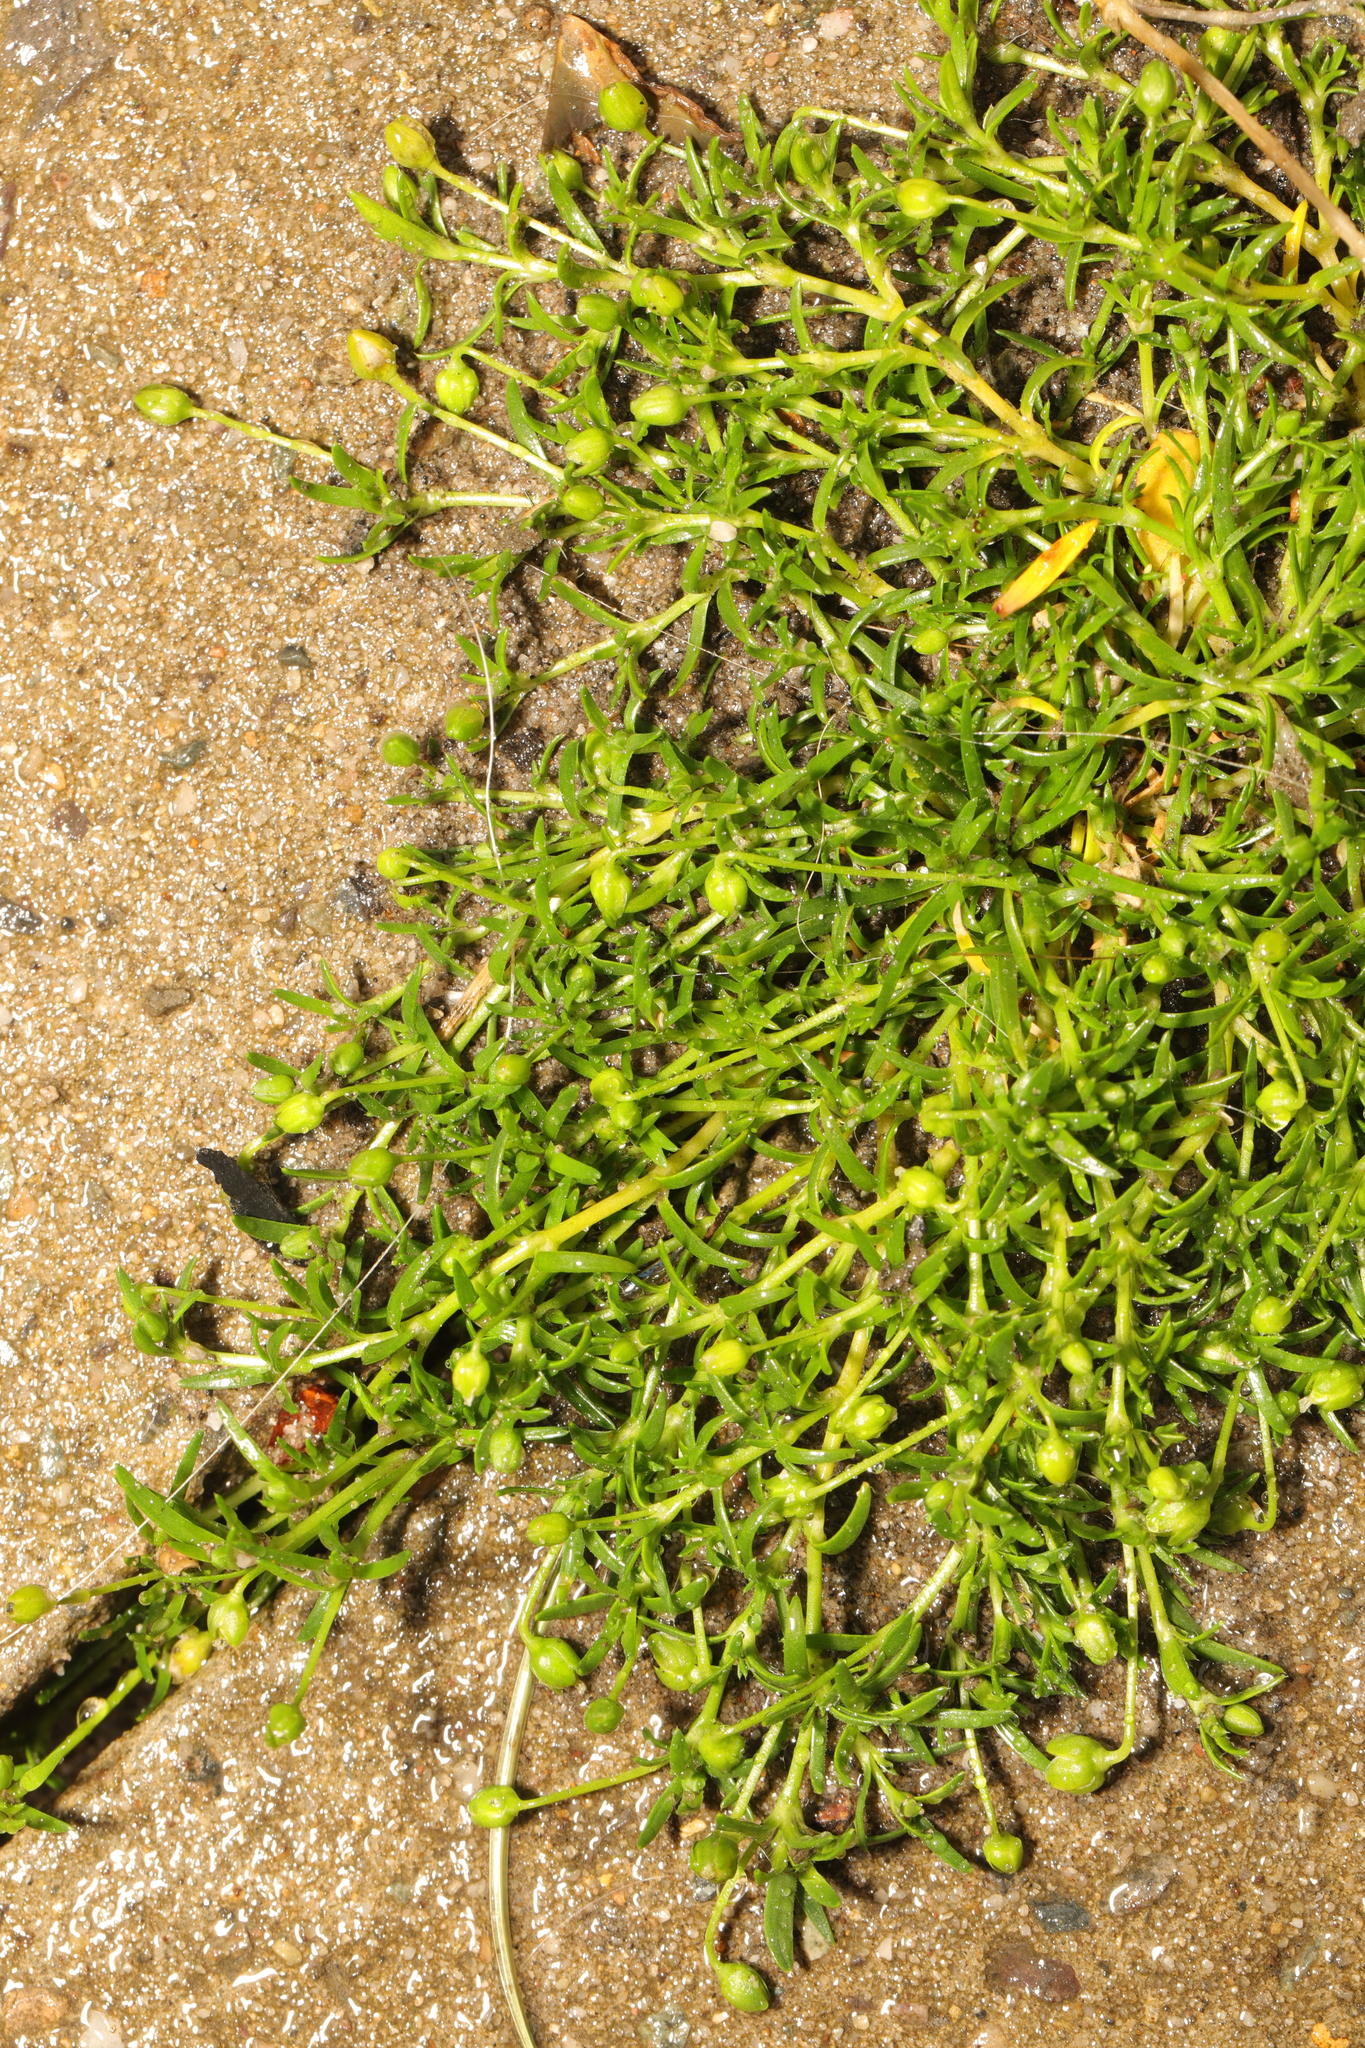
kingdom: Plantae
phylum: Tracheophyta
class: Magnoliopsida
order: Caryophyllales
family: Caryophyllaceae
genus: Sagina
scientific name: Sagina procumbens
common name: Procumbent pearlwort
